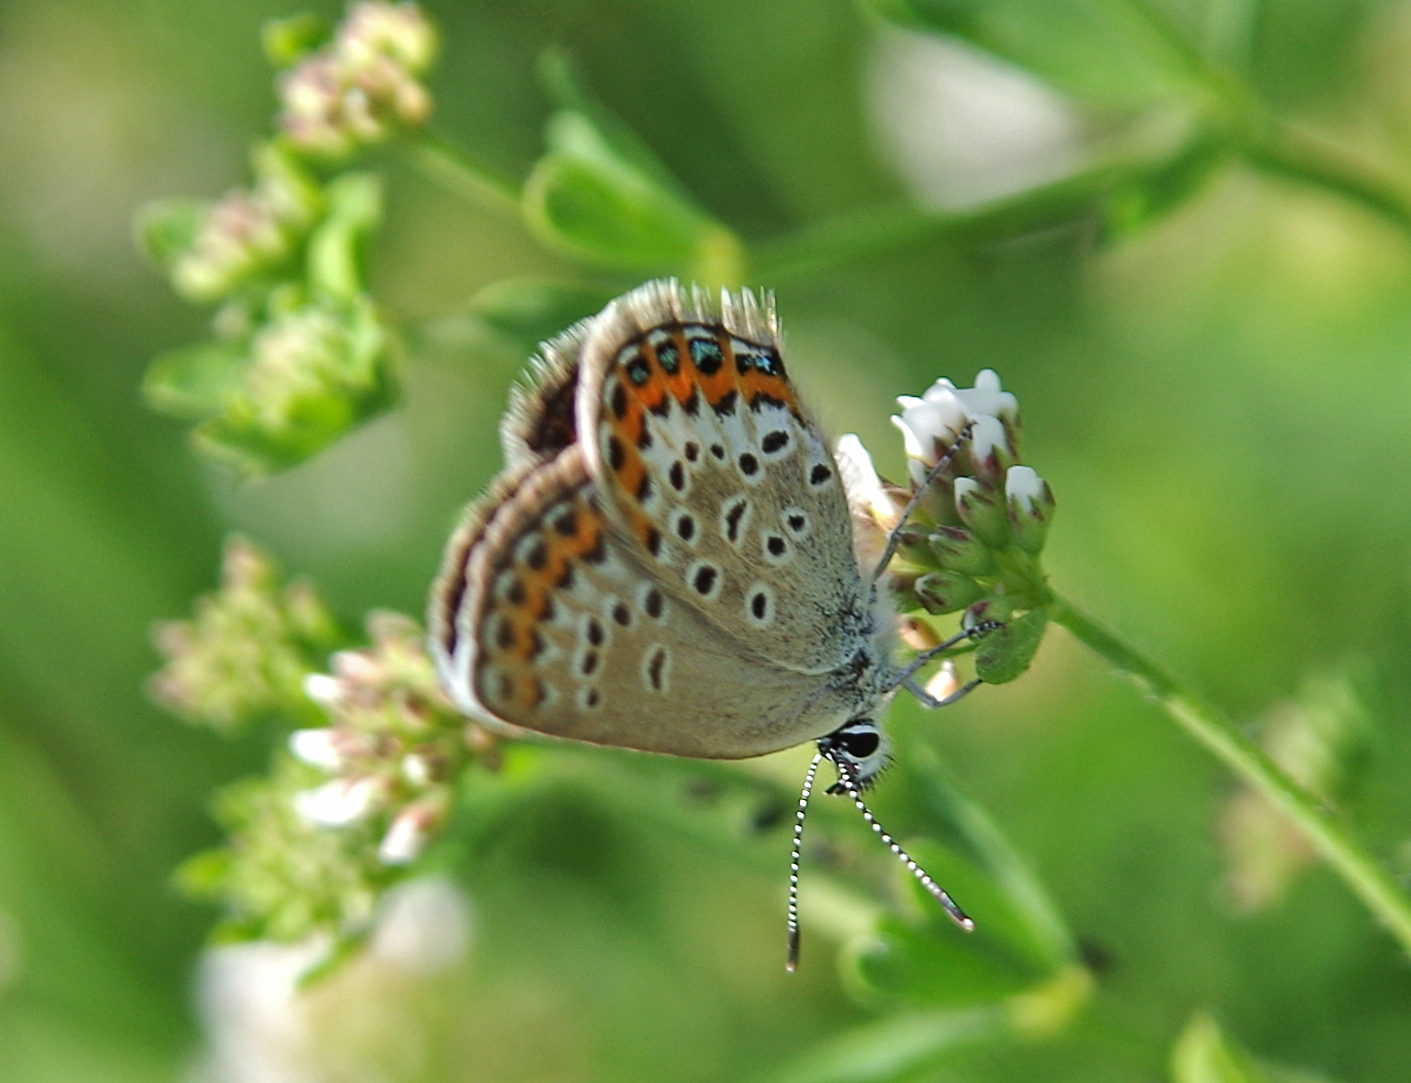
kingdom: Animalia
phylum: Arthropoda
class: Insecta
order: Lepidoptera
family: Lycaenidae
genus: Plebejus
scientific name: Plebejus argus
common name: Silver-studded blue
